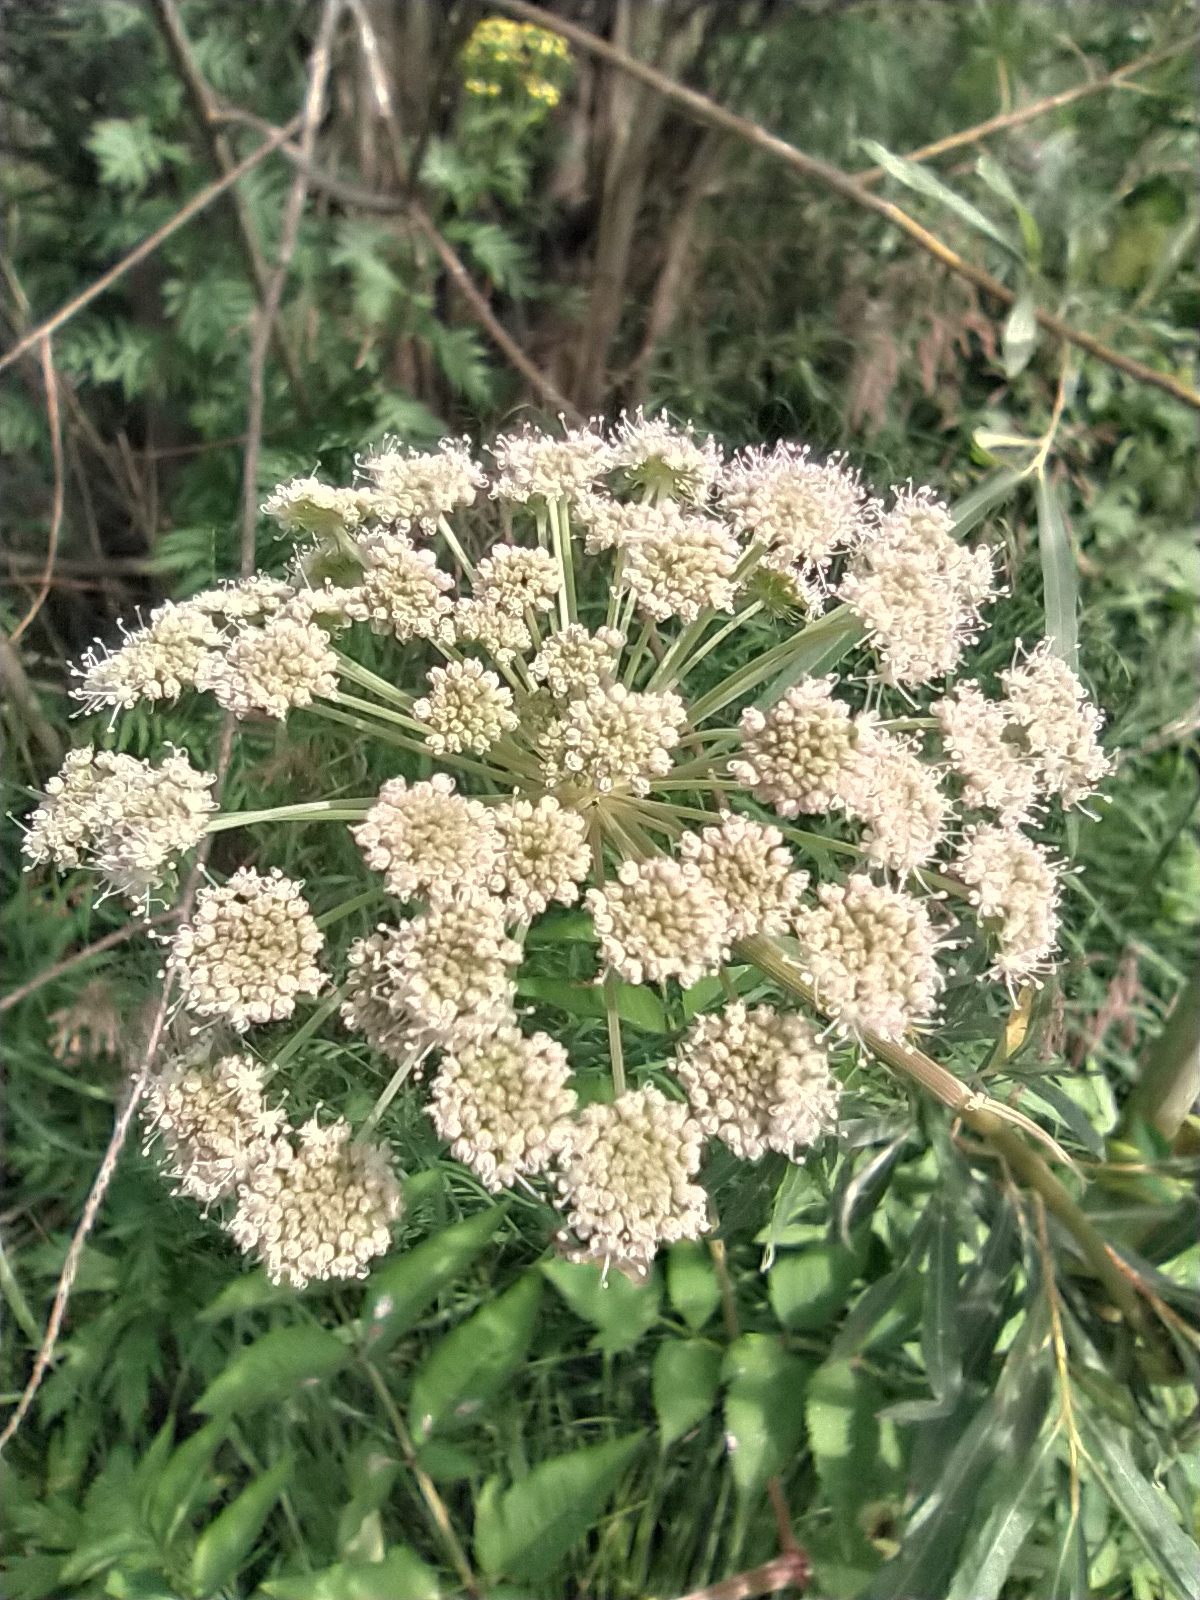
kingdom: Plantae
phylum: Tracheophyta
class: Magnoliopsida
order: Apiales
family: Apiaceae
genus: Angelica
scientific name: Angelica sylvestris
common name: Wild angelica
